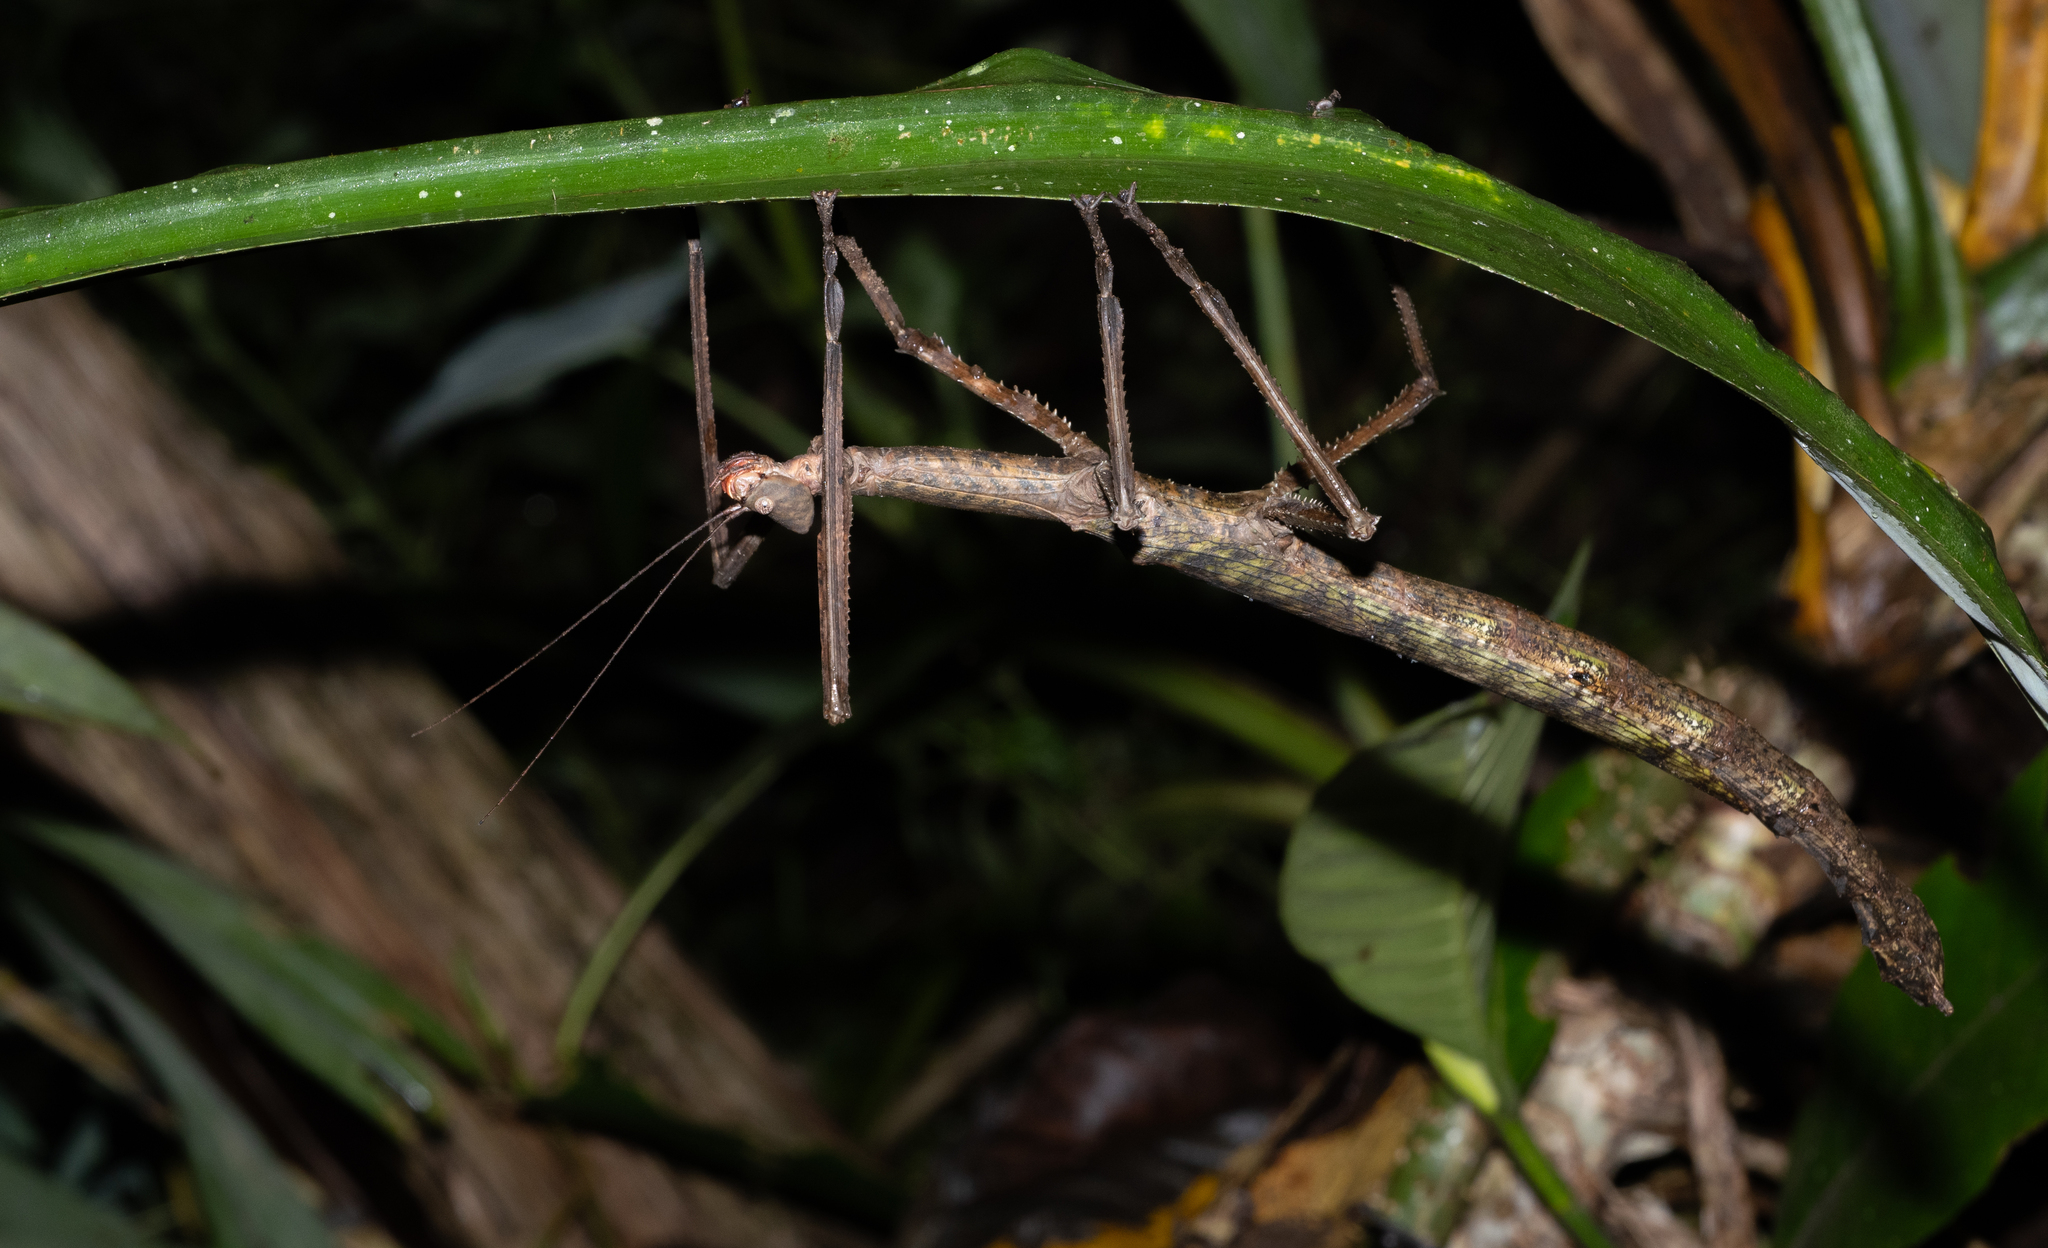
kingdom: Animalia
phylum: Arthropoda
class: Insecta
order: Phasmida
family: Phasmatidae
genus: Peloriana
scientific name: Peloriana lobiceps
